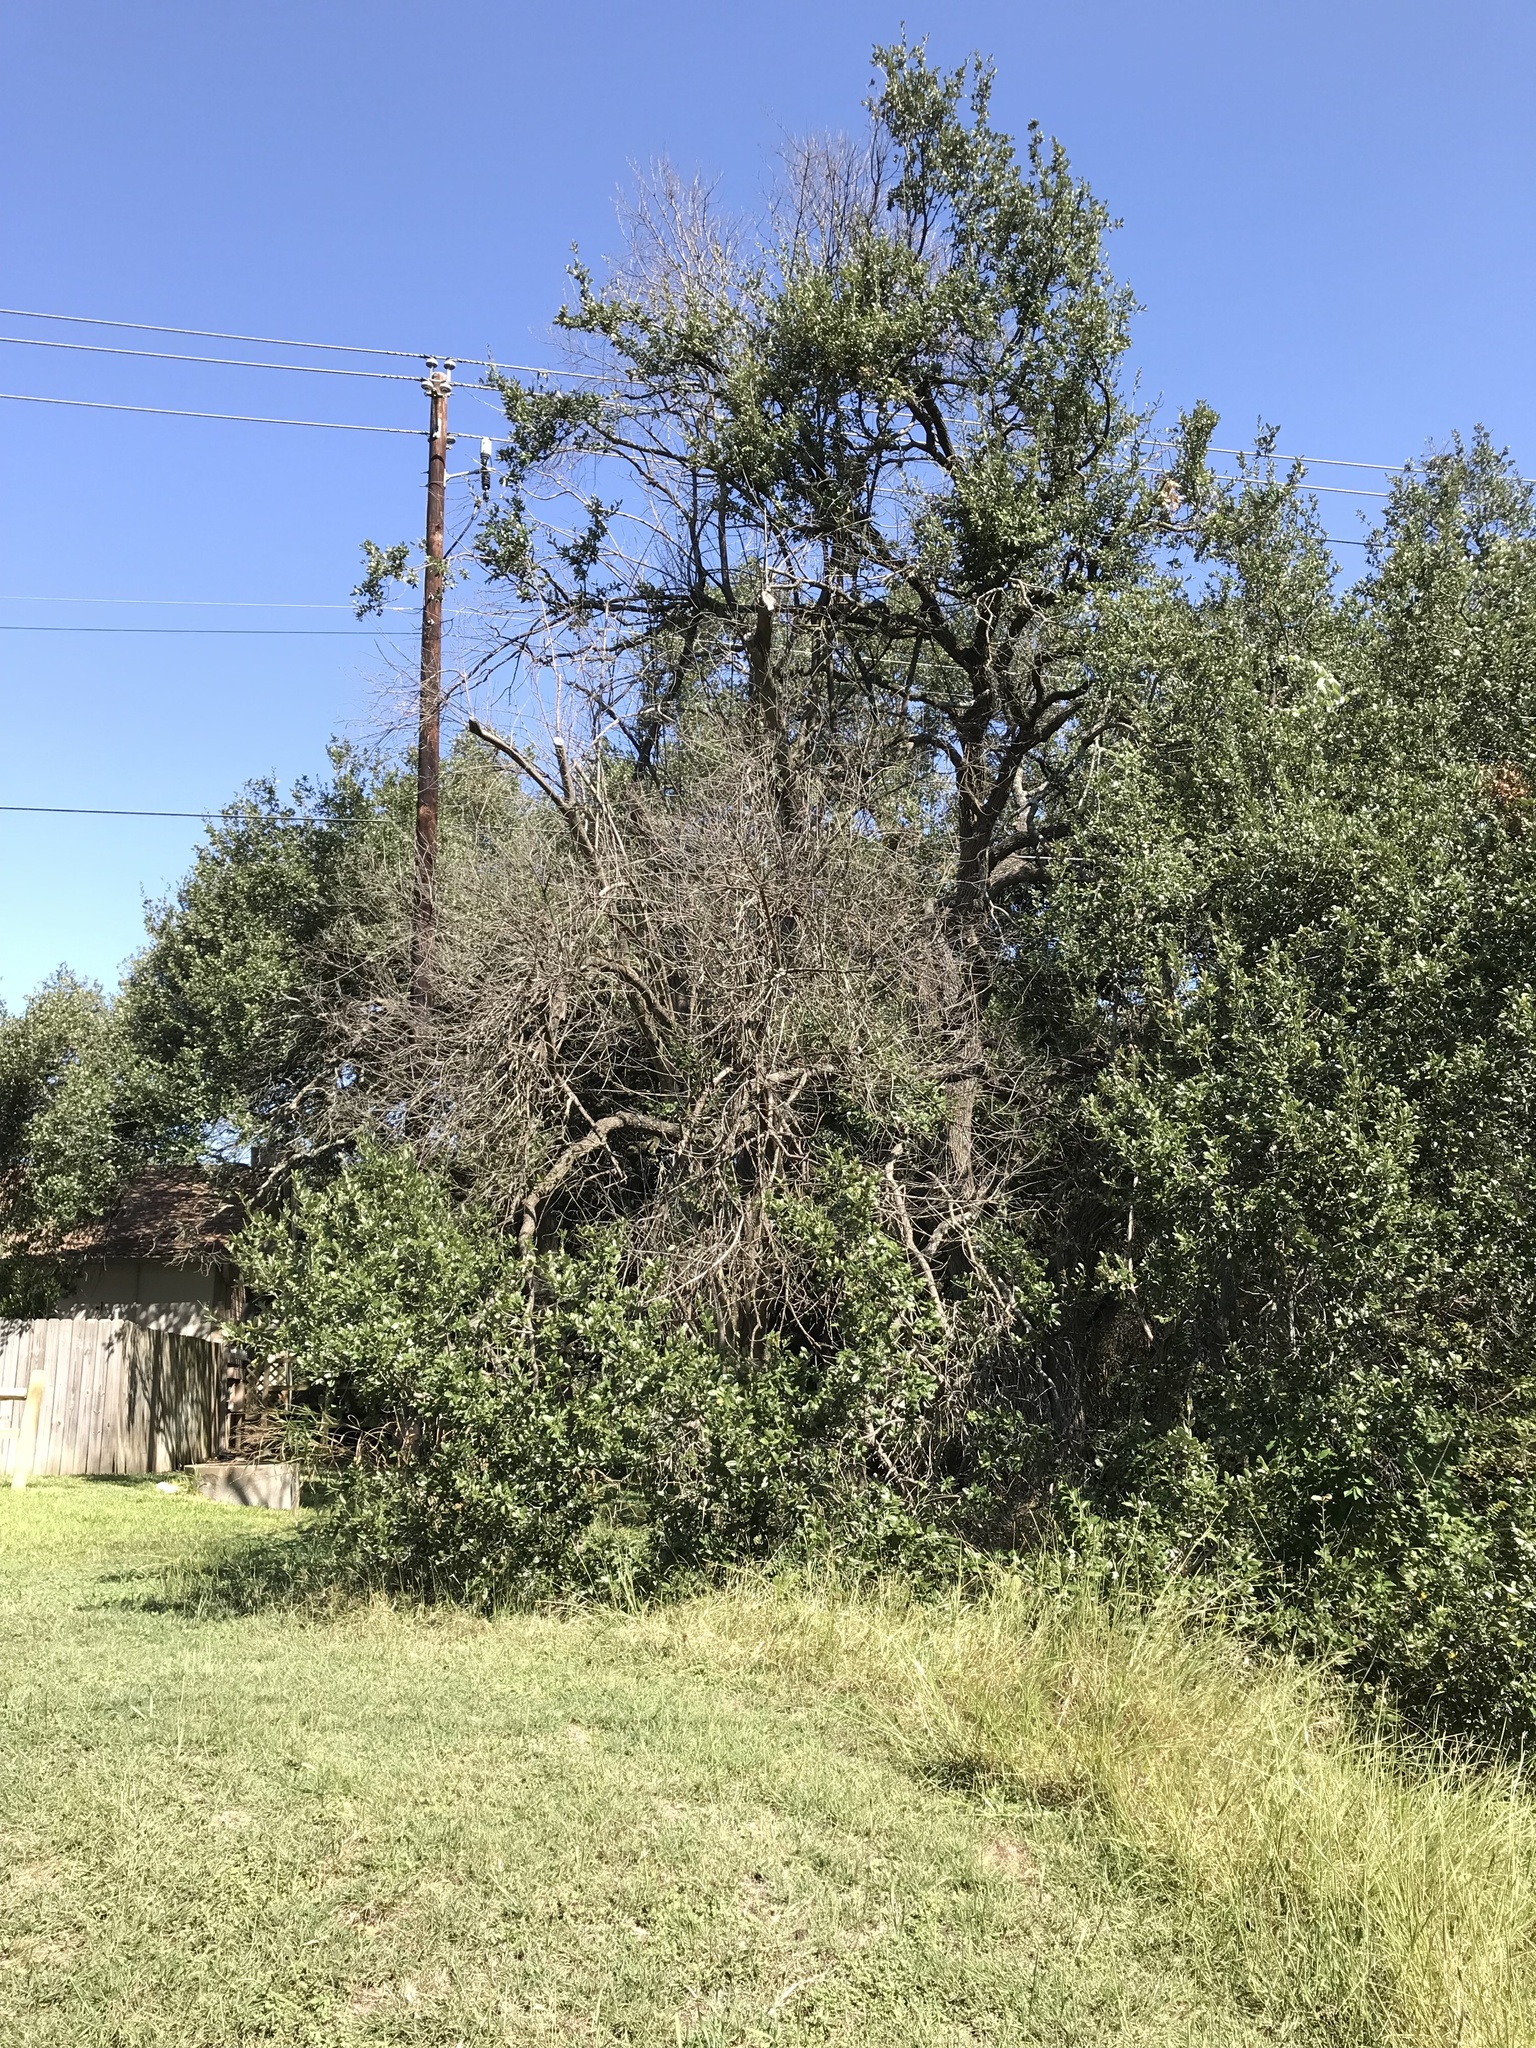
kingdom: Plantae
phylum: Tracheophyta
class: Magnoliopsida
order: Lamiales
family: Oleaceae
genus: Ligustrum
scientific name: Ligustrum lucidum
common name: Glossy privet
